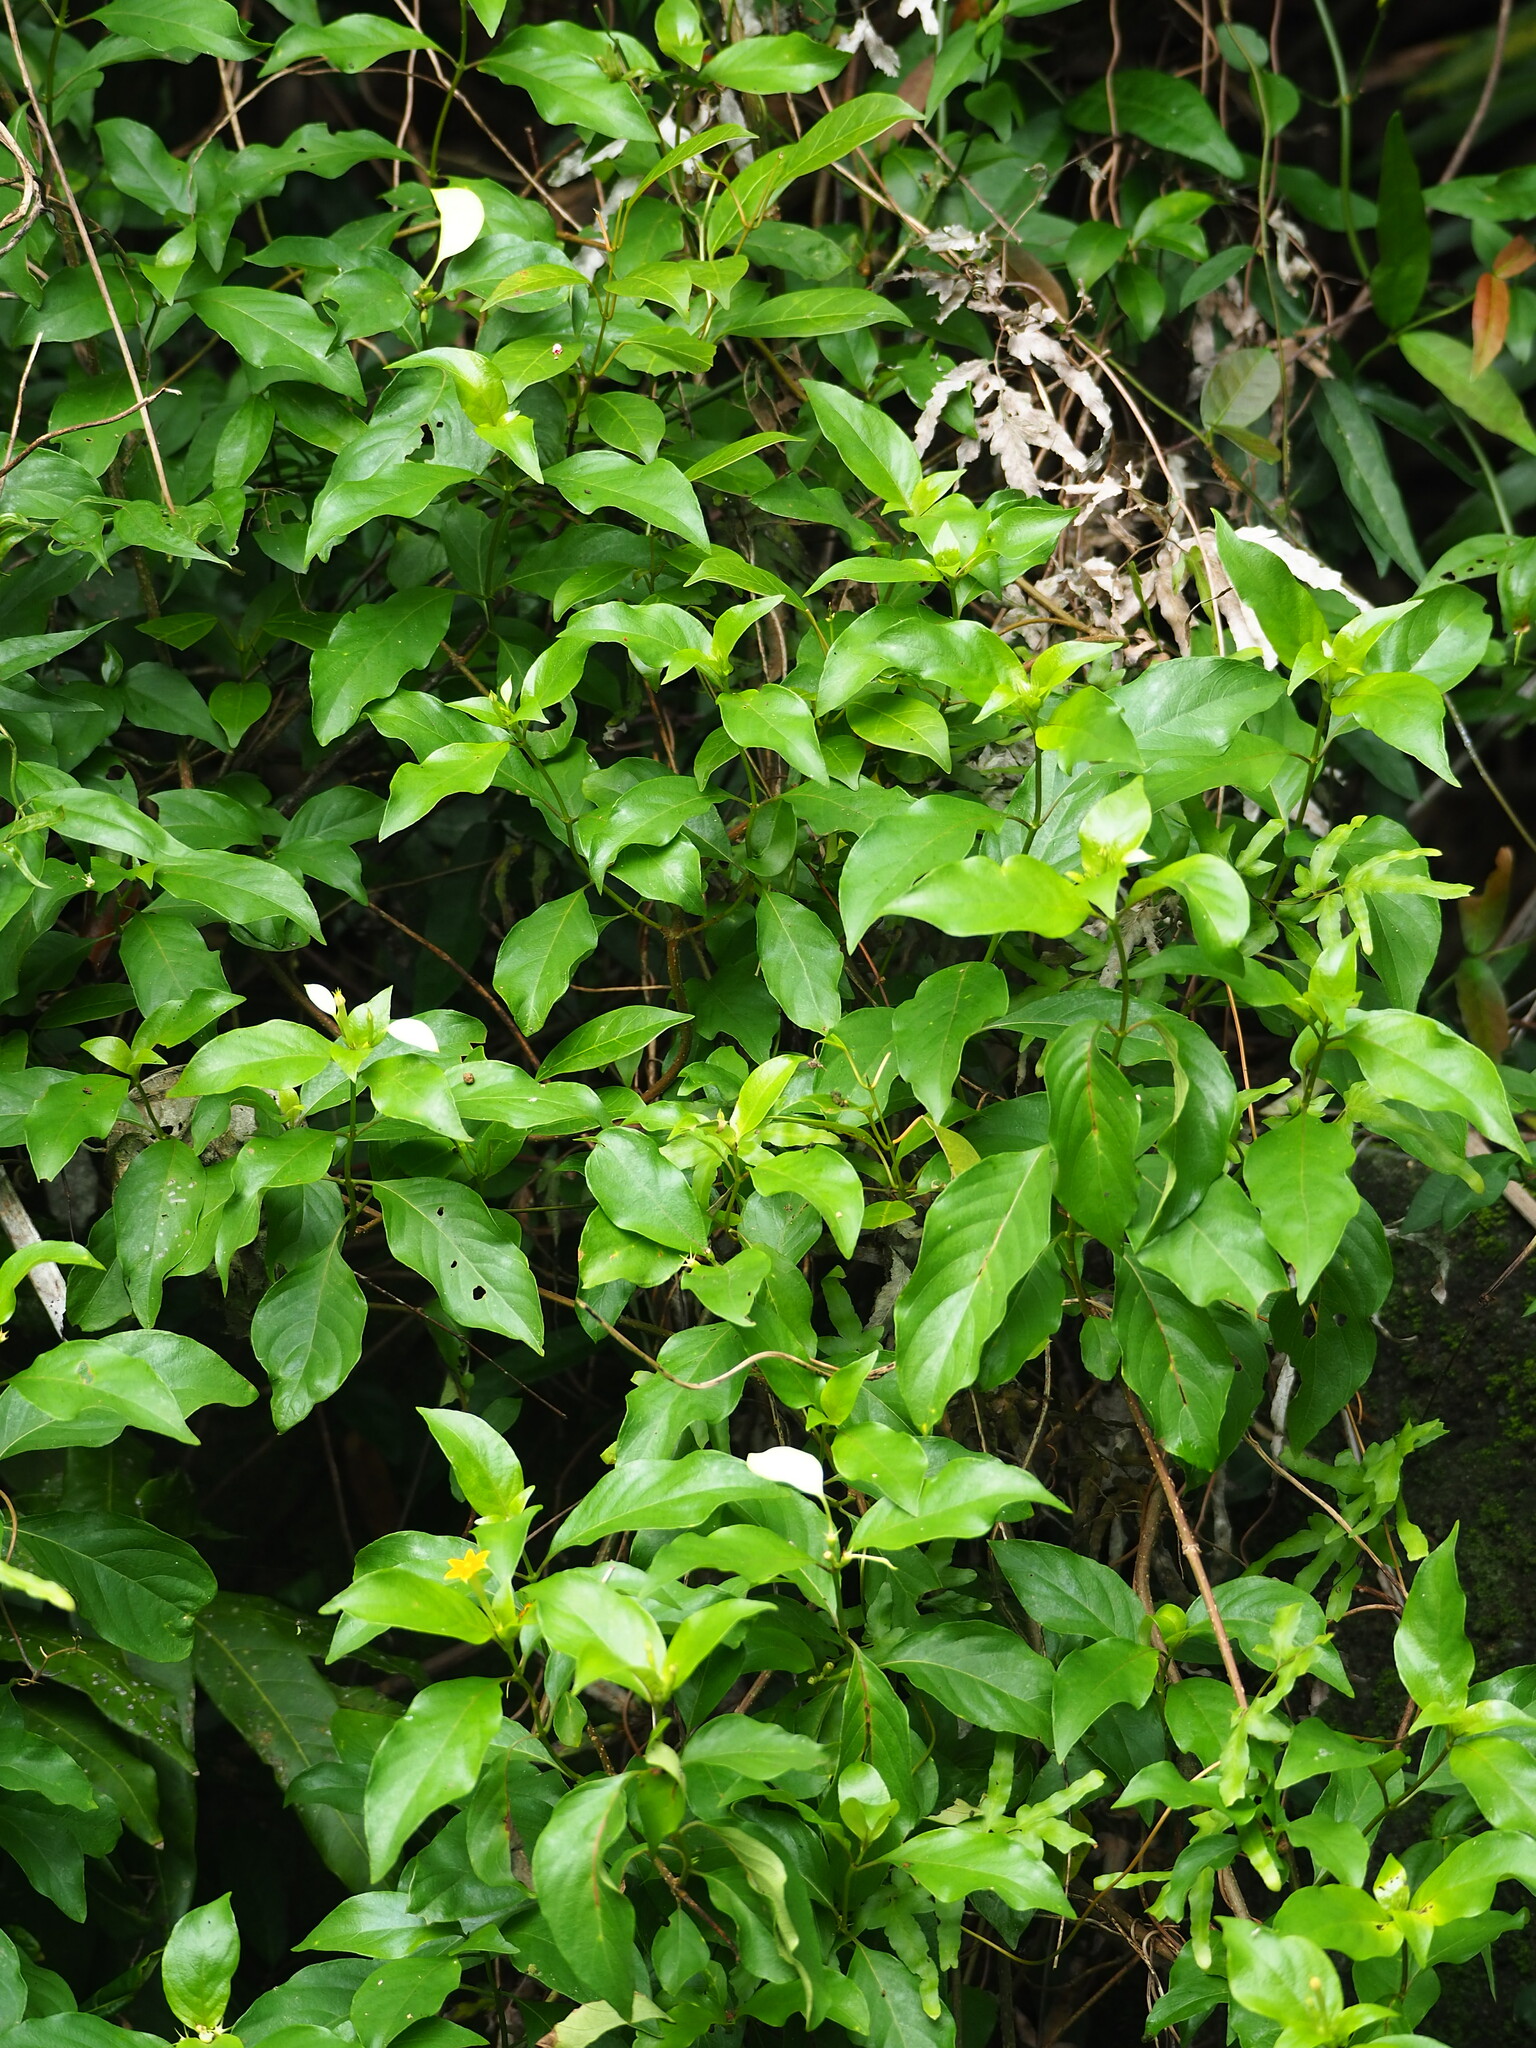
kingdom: Plantae
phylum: Tracheophyta
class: Magnoliopsida
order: Gentianales
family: Rubiaceae
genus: Mussaenda
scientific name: Mussaenda formosana
